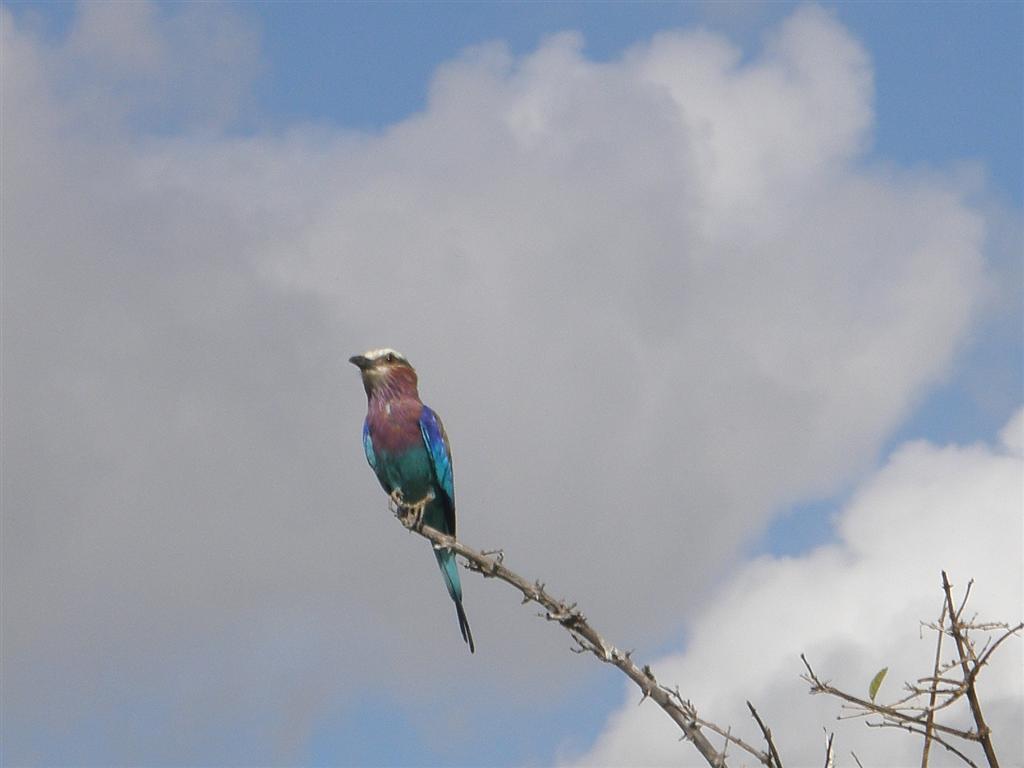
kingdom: Animalia
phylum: Chordata
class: Aves
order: Coraciiformes
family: Coraciidae
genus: Coracias
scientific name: Coracias caudatus
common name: Lilac-breasted roller
